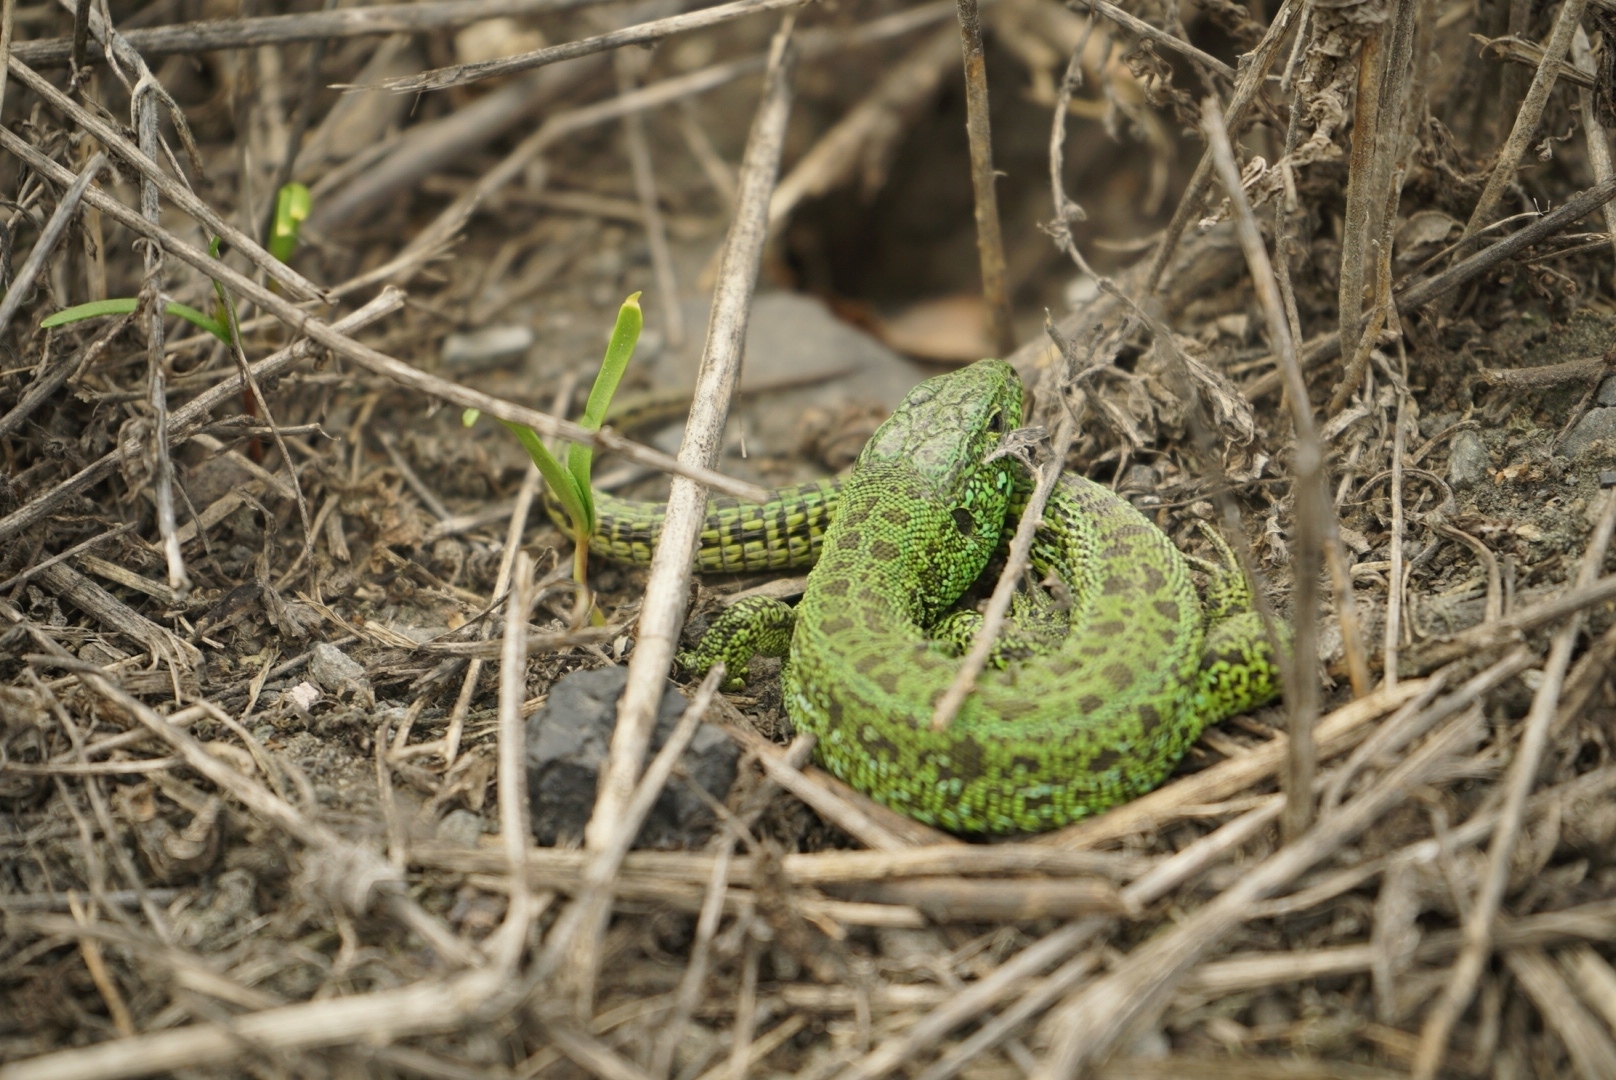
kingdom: Animalia
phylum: Chordata
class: Squamata
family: Lacertidae
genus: Lacerta
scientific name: Lacerta agilis
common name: Sand lizard
